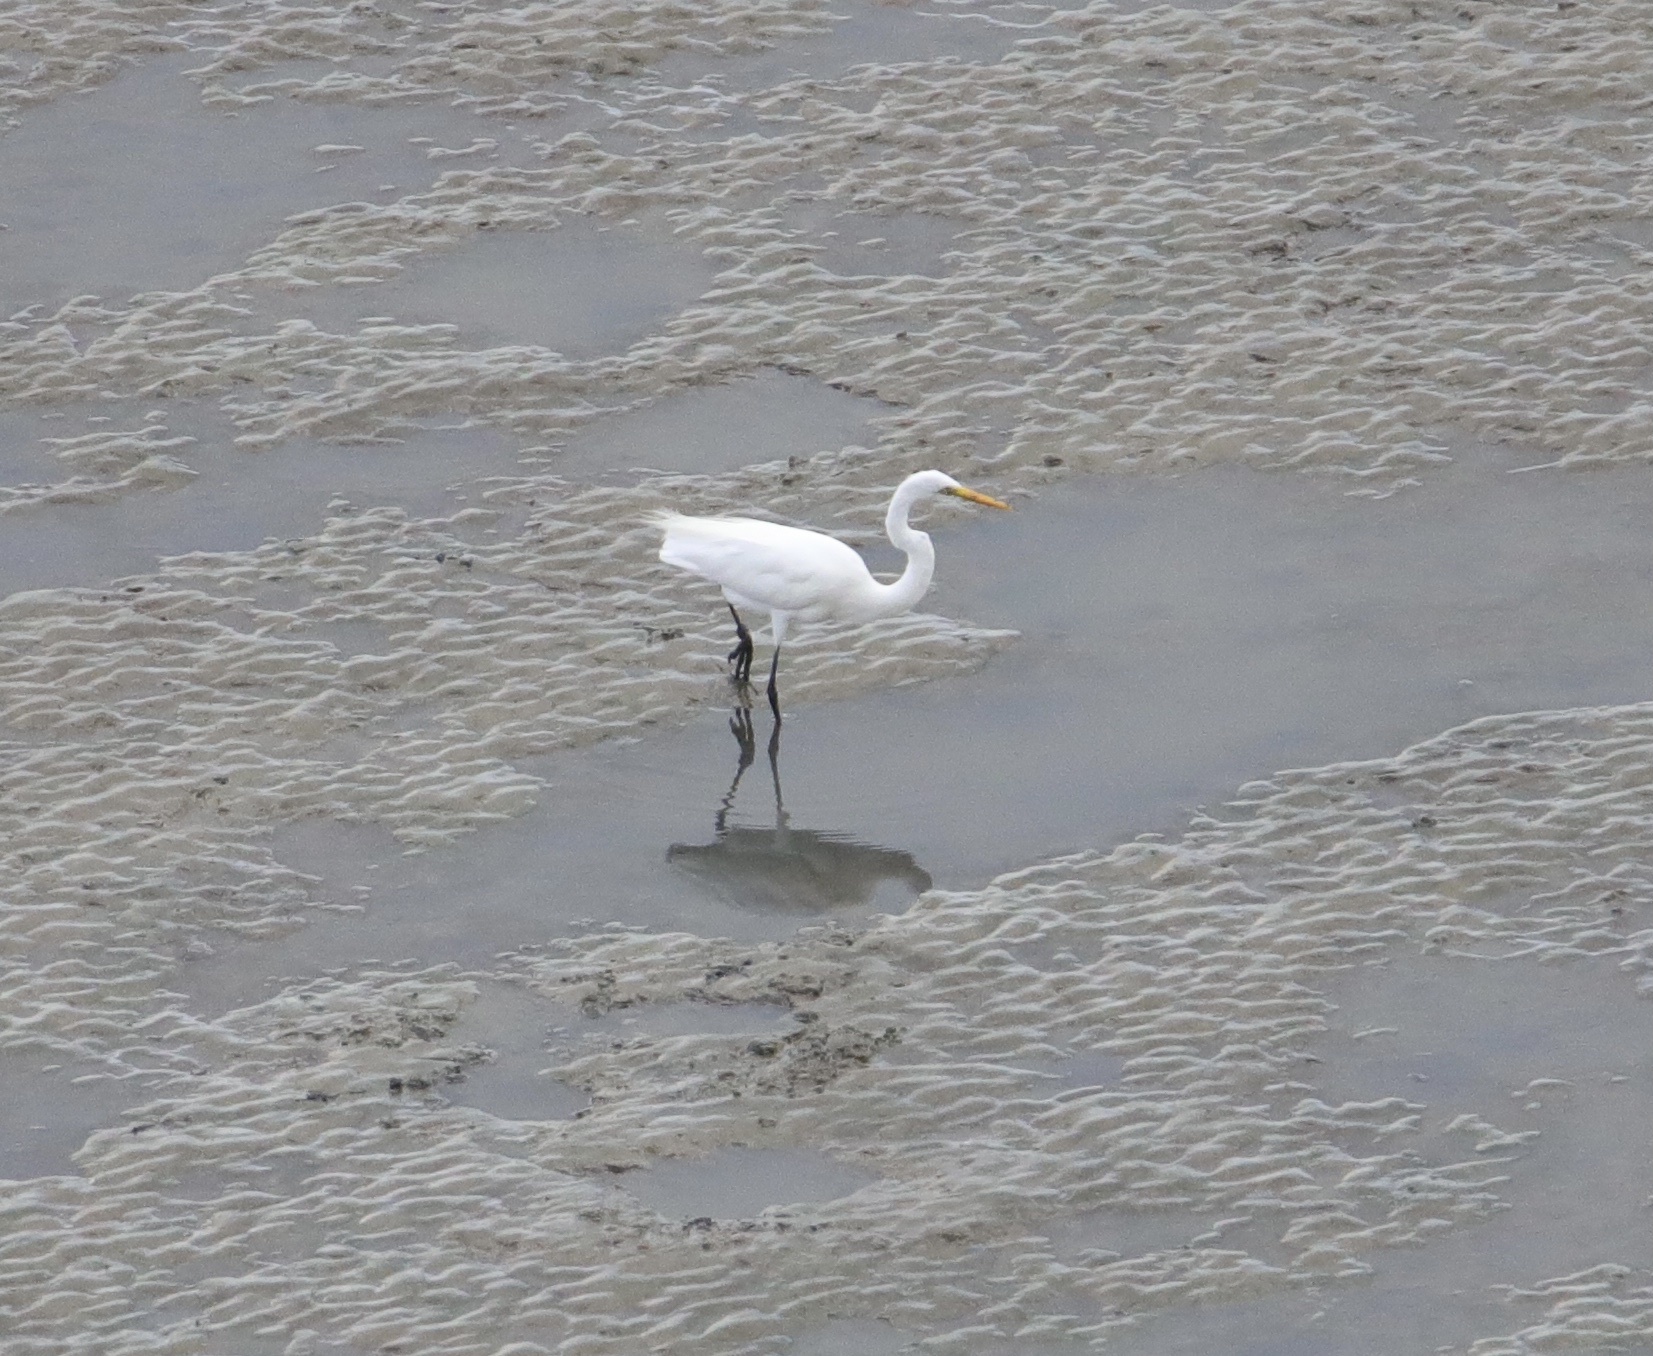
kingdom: Animalia
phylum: Chordata
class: Aves
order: Pelecaniformes
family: Ardeidae
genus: Ardea
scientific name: Ardea alba
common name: Great egret
